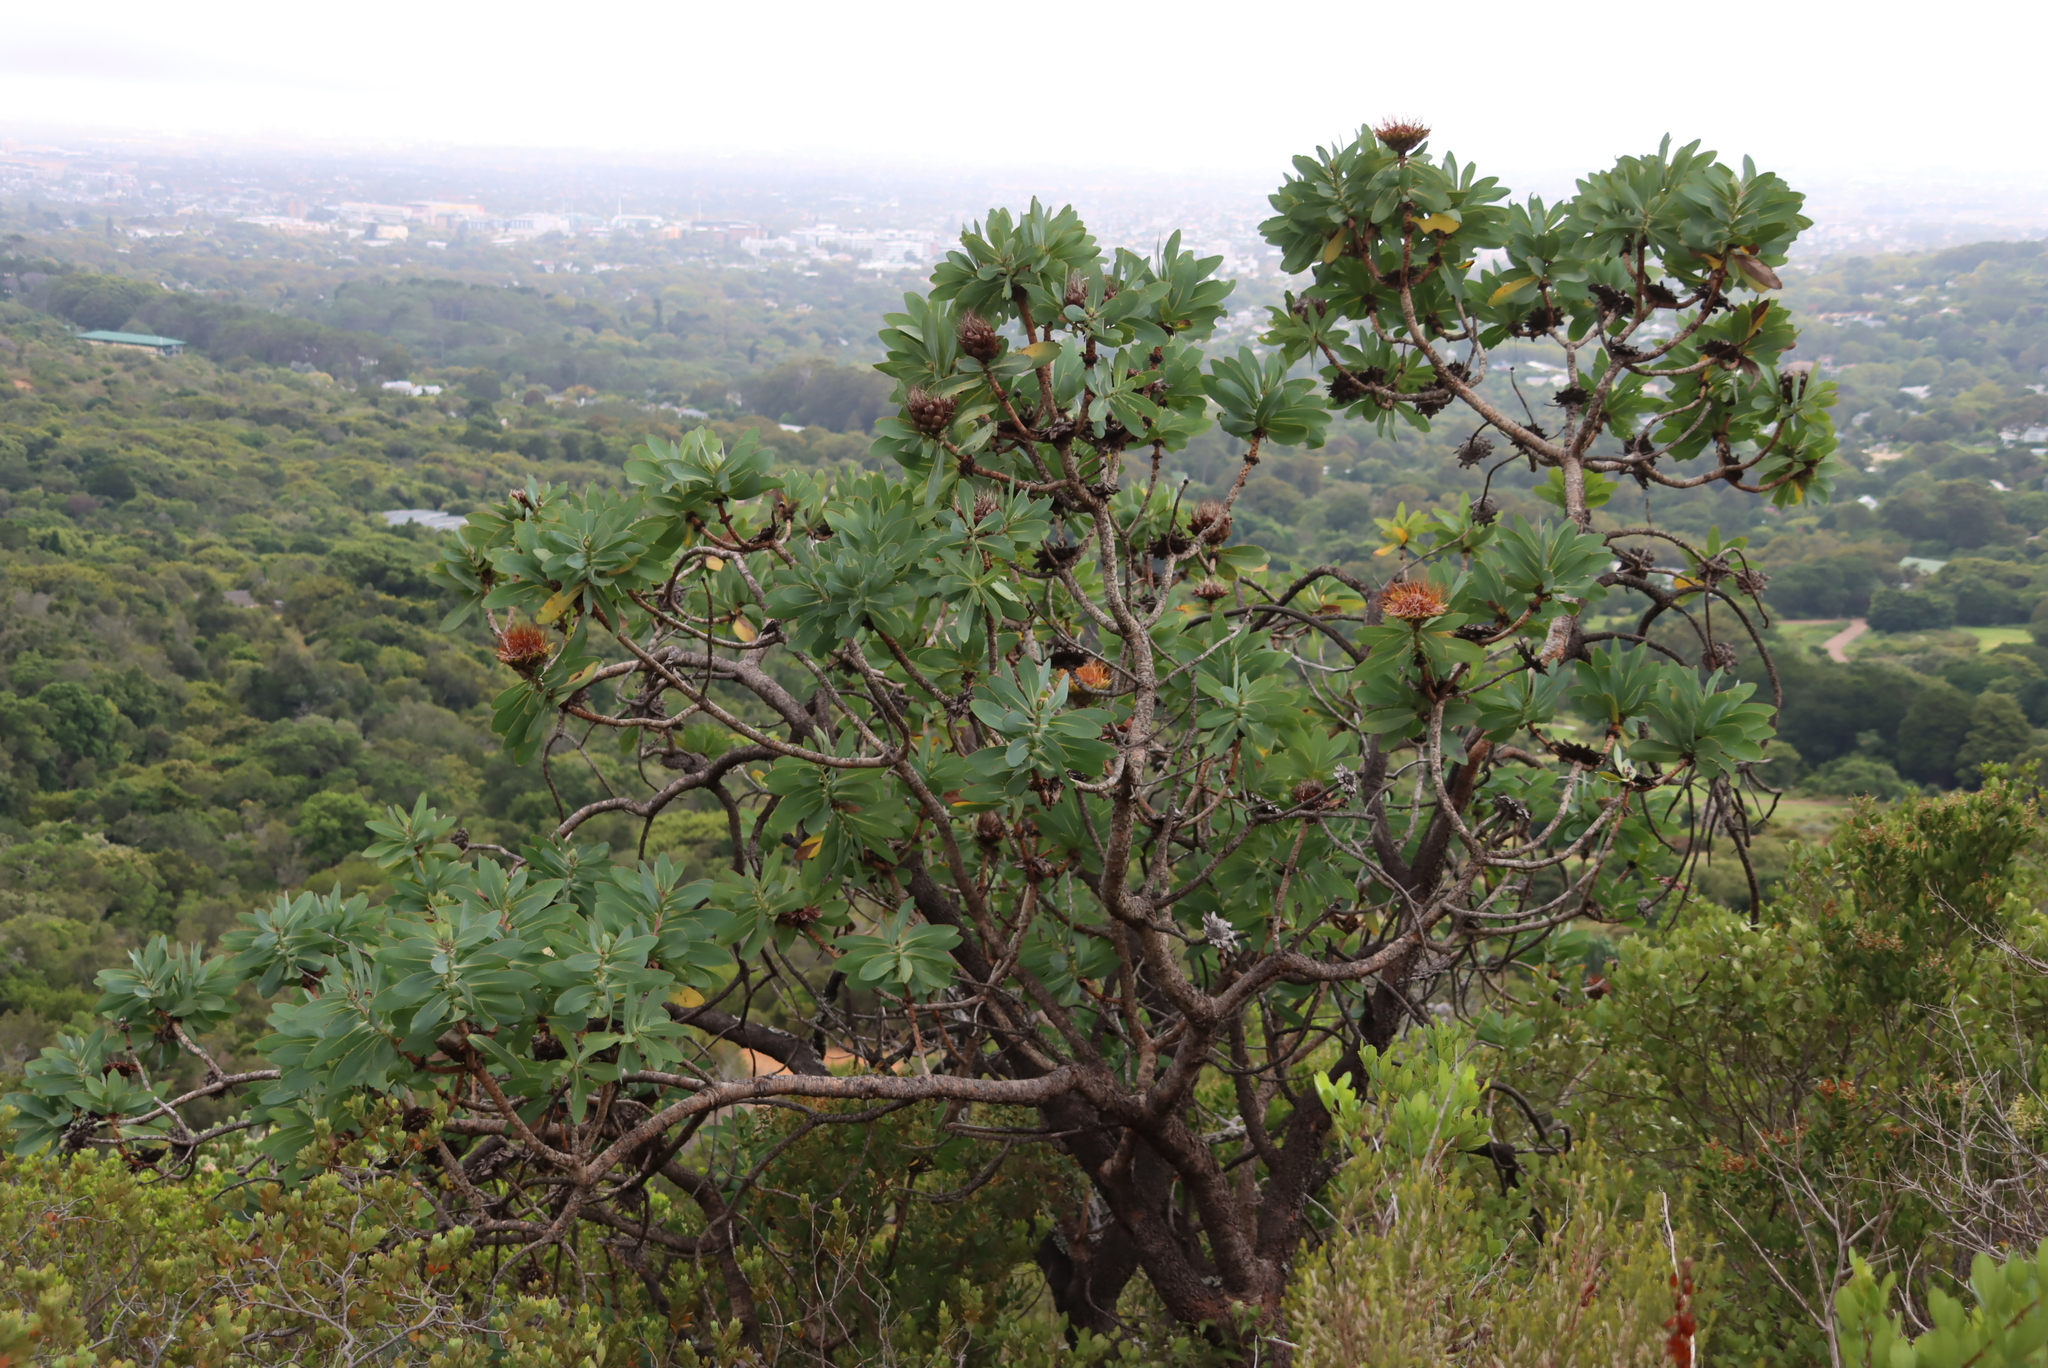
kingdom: Plantae
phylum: Tracheophyta
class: Magnoliopsida
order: Proteales
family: Proteaceae
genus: Protea
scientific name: Protea nitida
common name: Tree protea
